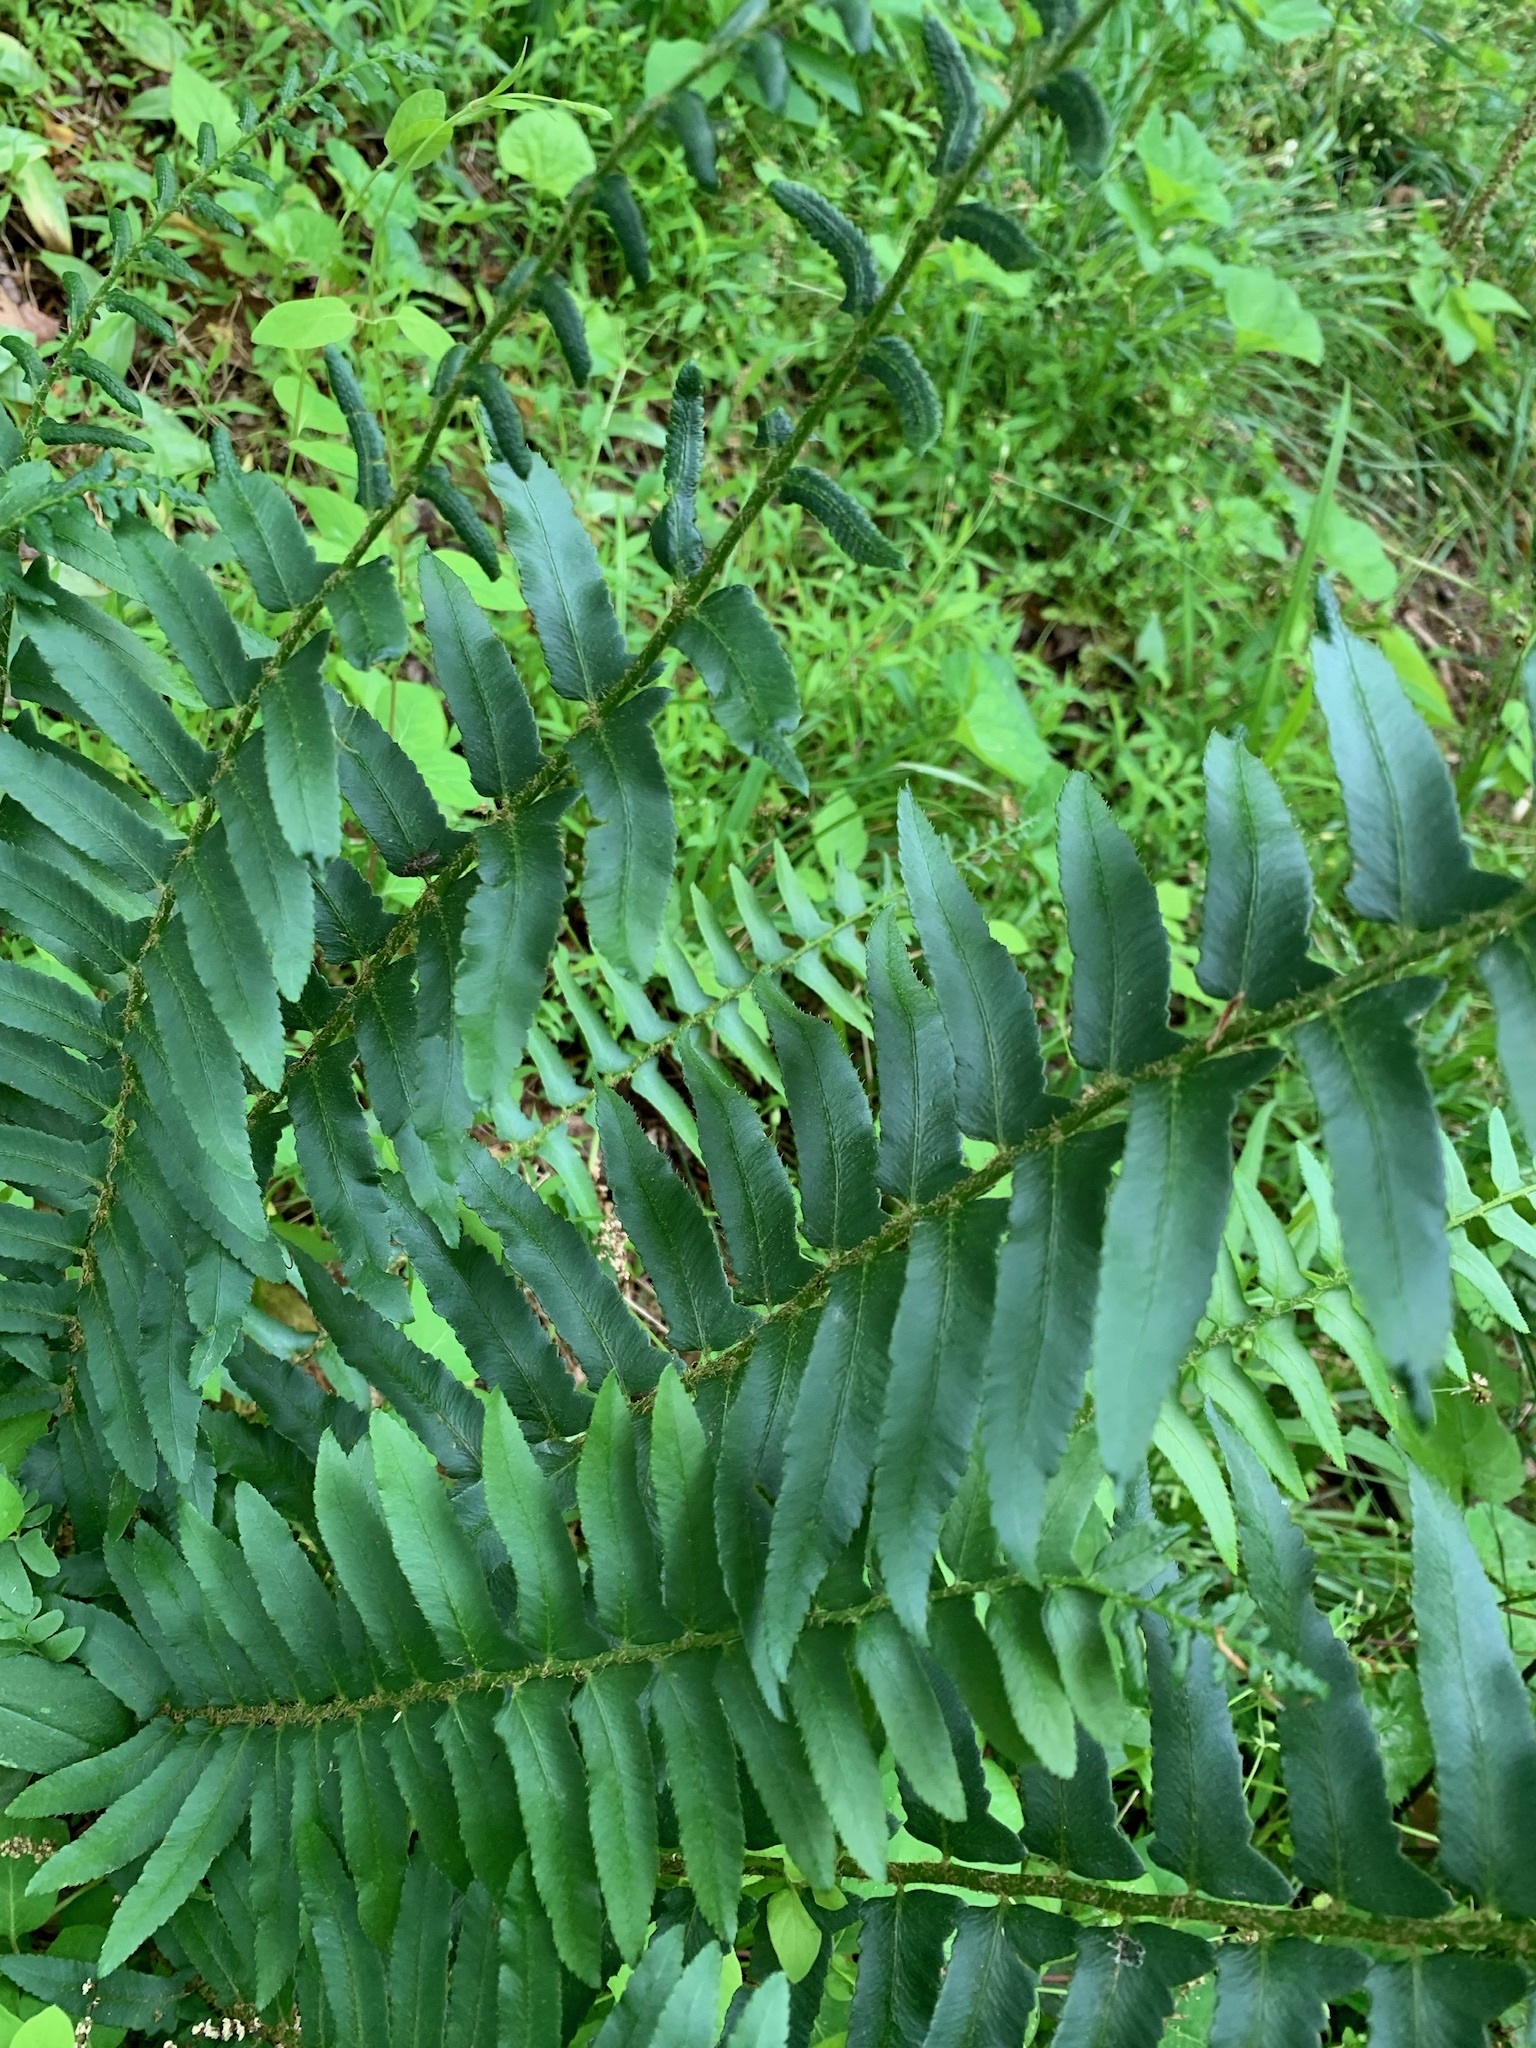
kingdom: Plantae
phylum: Tracheophyta
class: Polypodiopsida
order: Polypodiales
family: Dryopteridaceae
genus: Polystichum
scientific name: Polystichum acrostichoides
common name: Christmas fern
